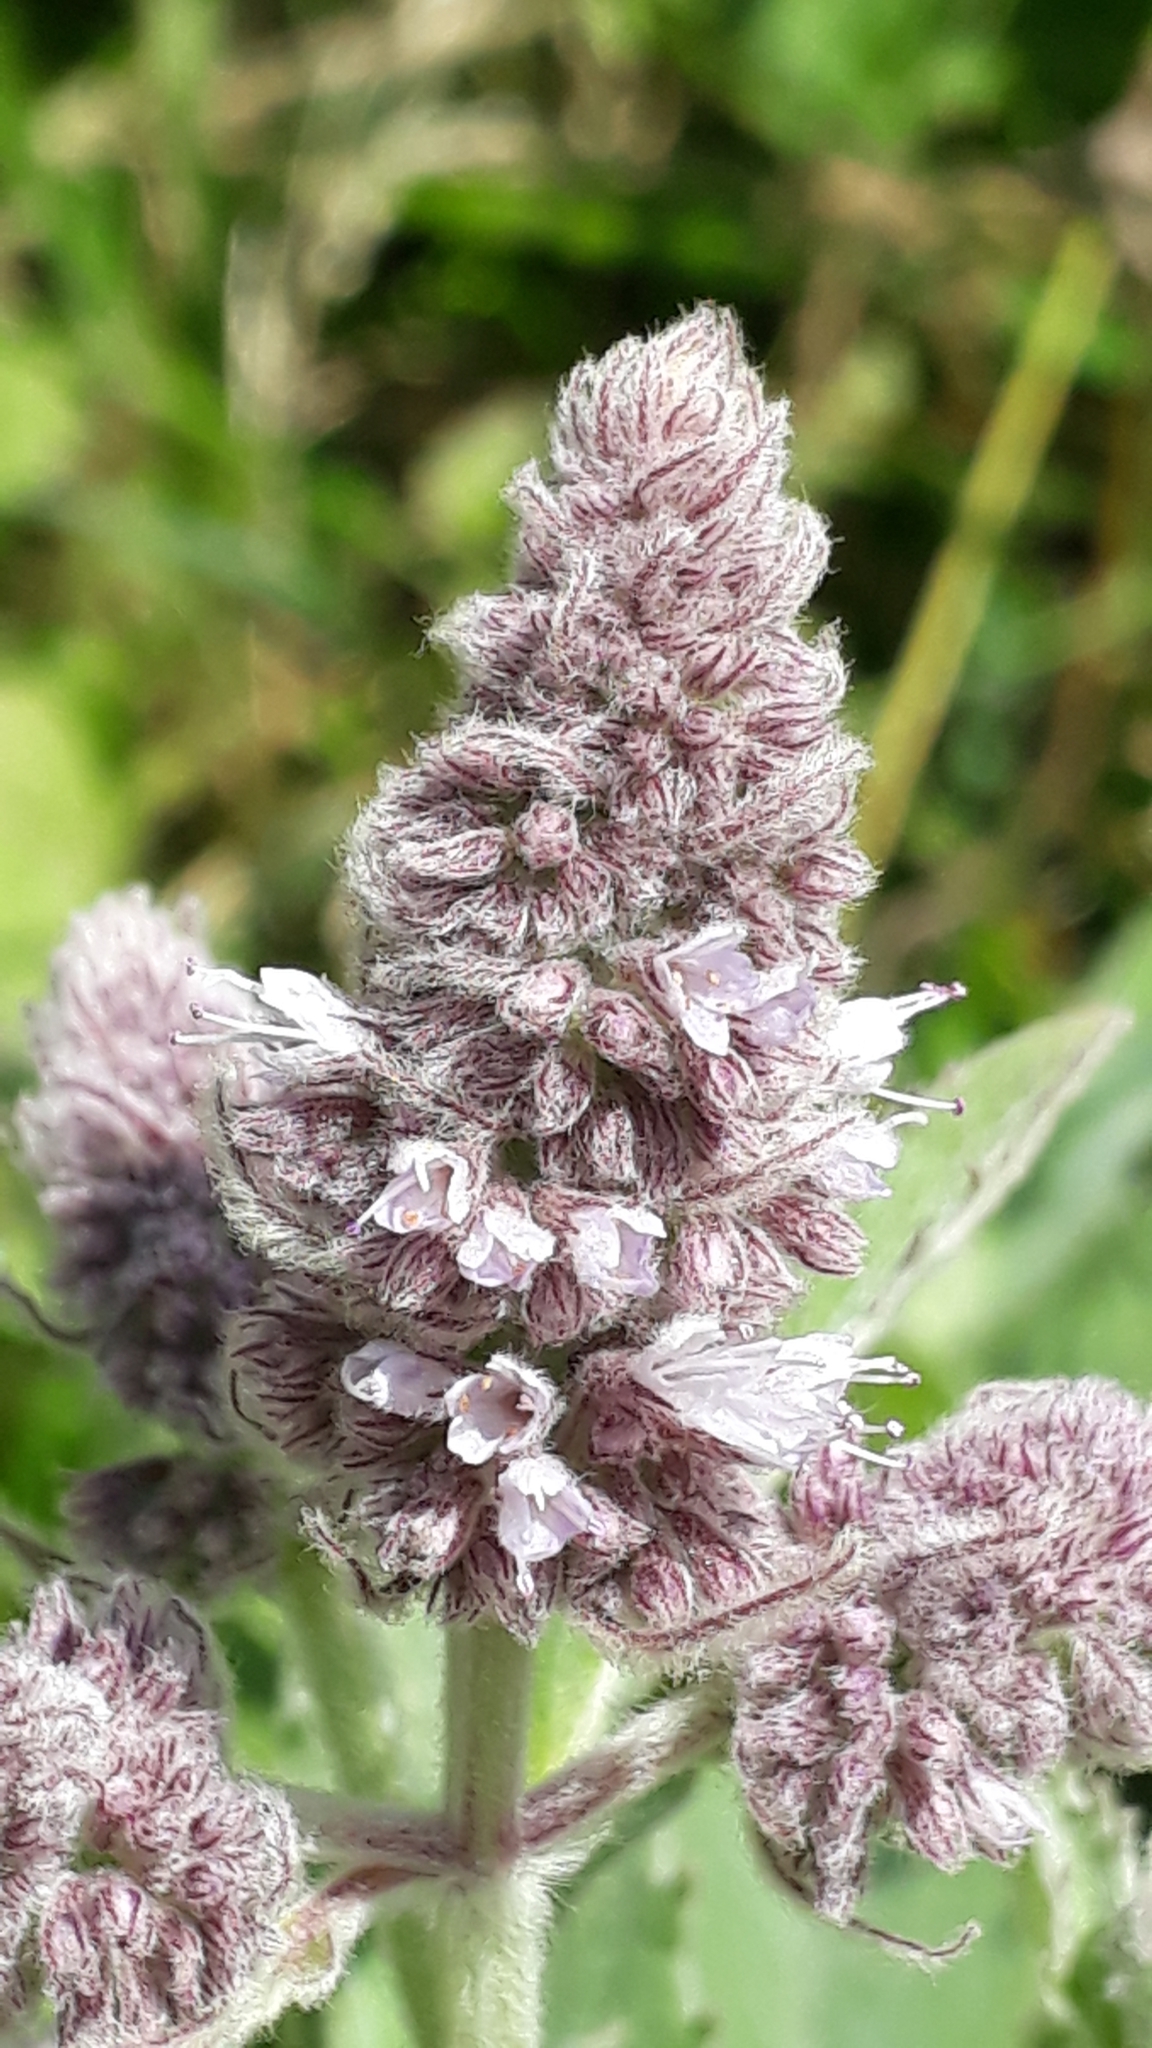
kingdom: Plantae
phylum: Tracheophyta
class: Magnoliopsida
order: Lamiales
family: Lamiaceae
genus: Mentha
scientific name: Mentha longifolia
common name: Horse mint
